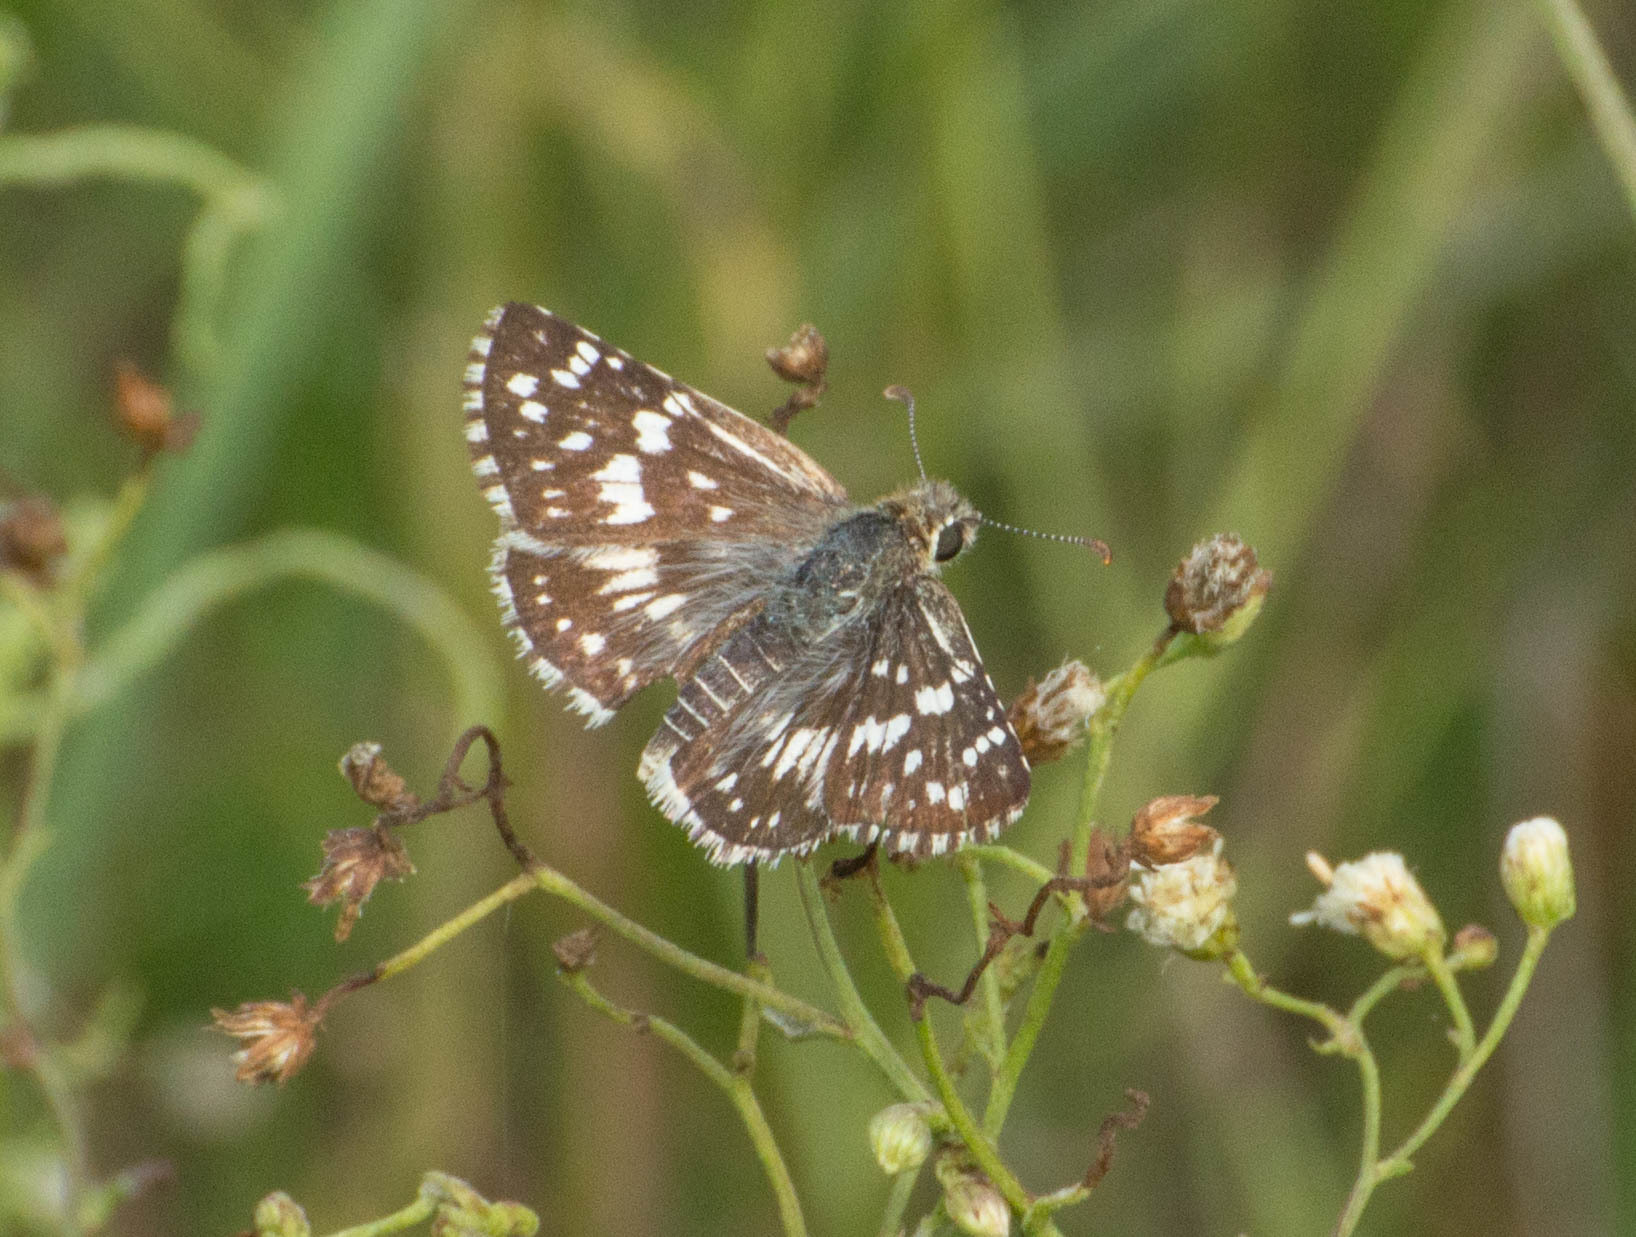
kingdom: Animalia
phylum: Arthropoda
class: Insecta
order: Lepidoptera
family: Hesperiidae
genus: Burnsius
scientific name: Burnsius orcynoides
